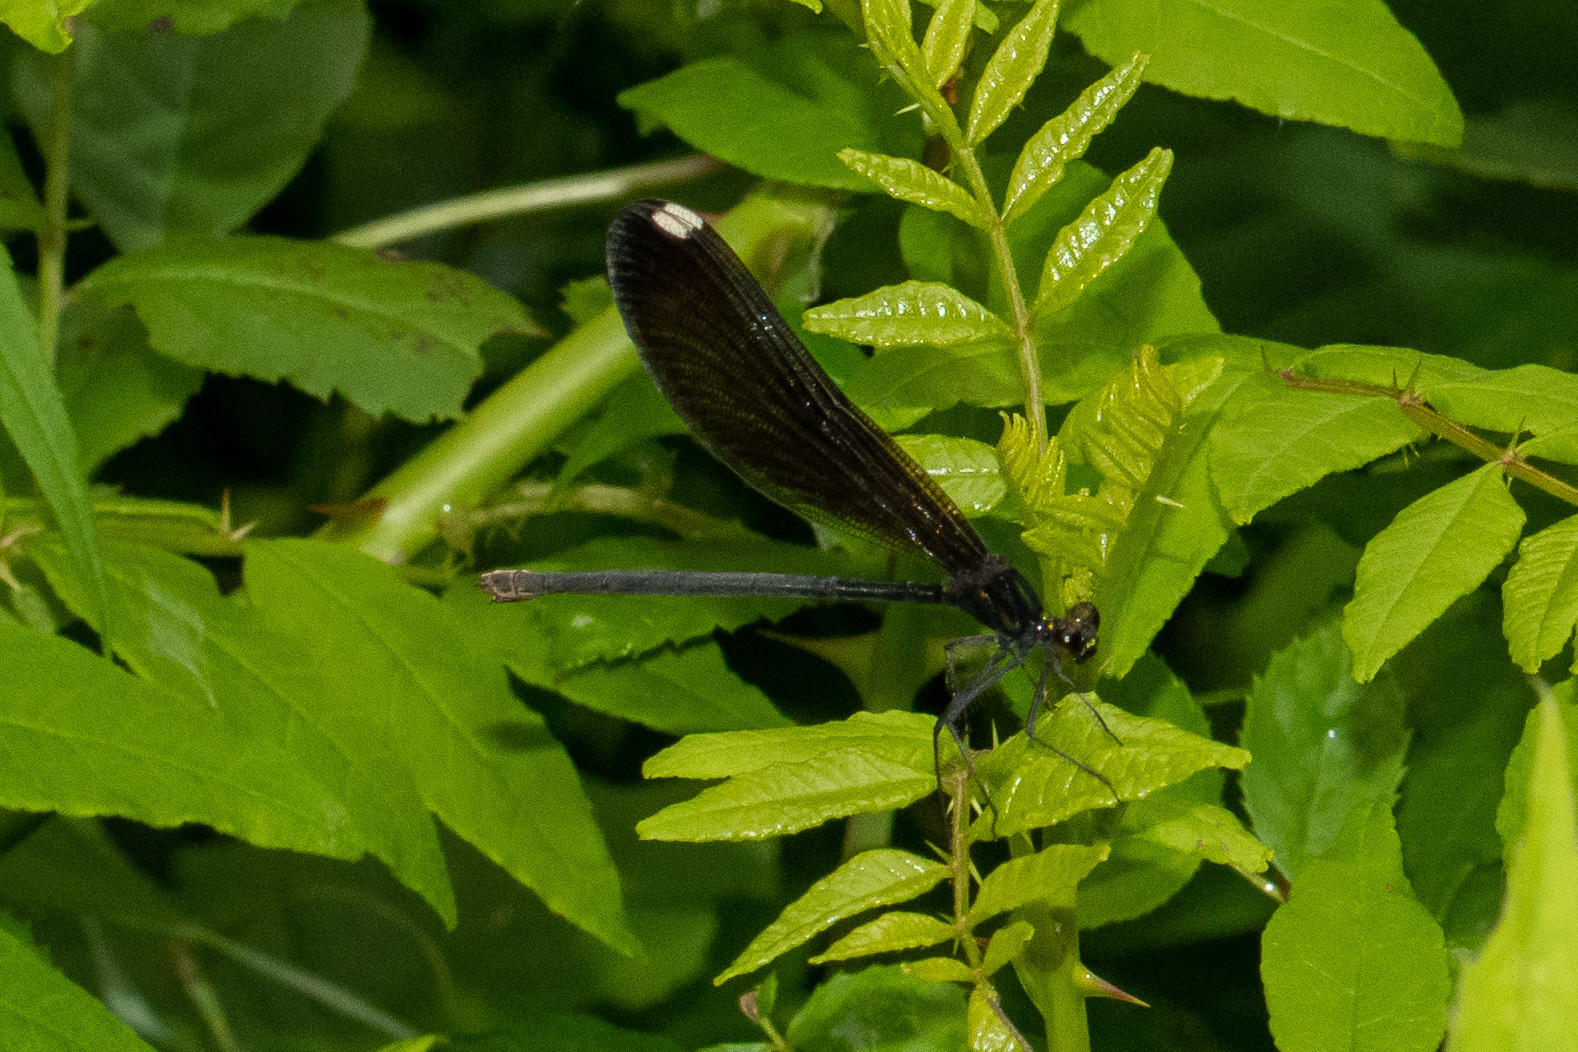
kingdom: Animalia
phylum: Arthropoda
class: Insecta
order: Odonata
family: Calopterygidae
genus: Calopteryx
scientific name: Calopteryx maculata
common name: Ebony jewelwing
